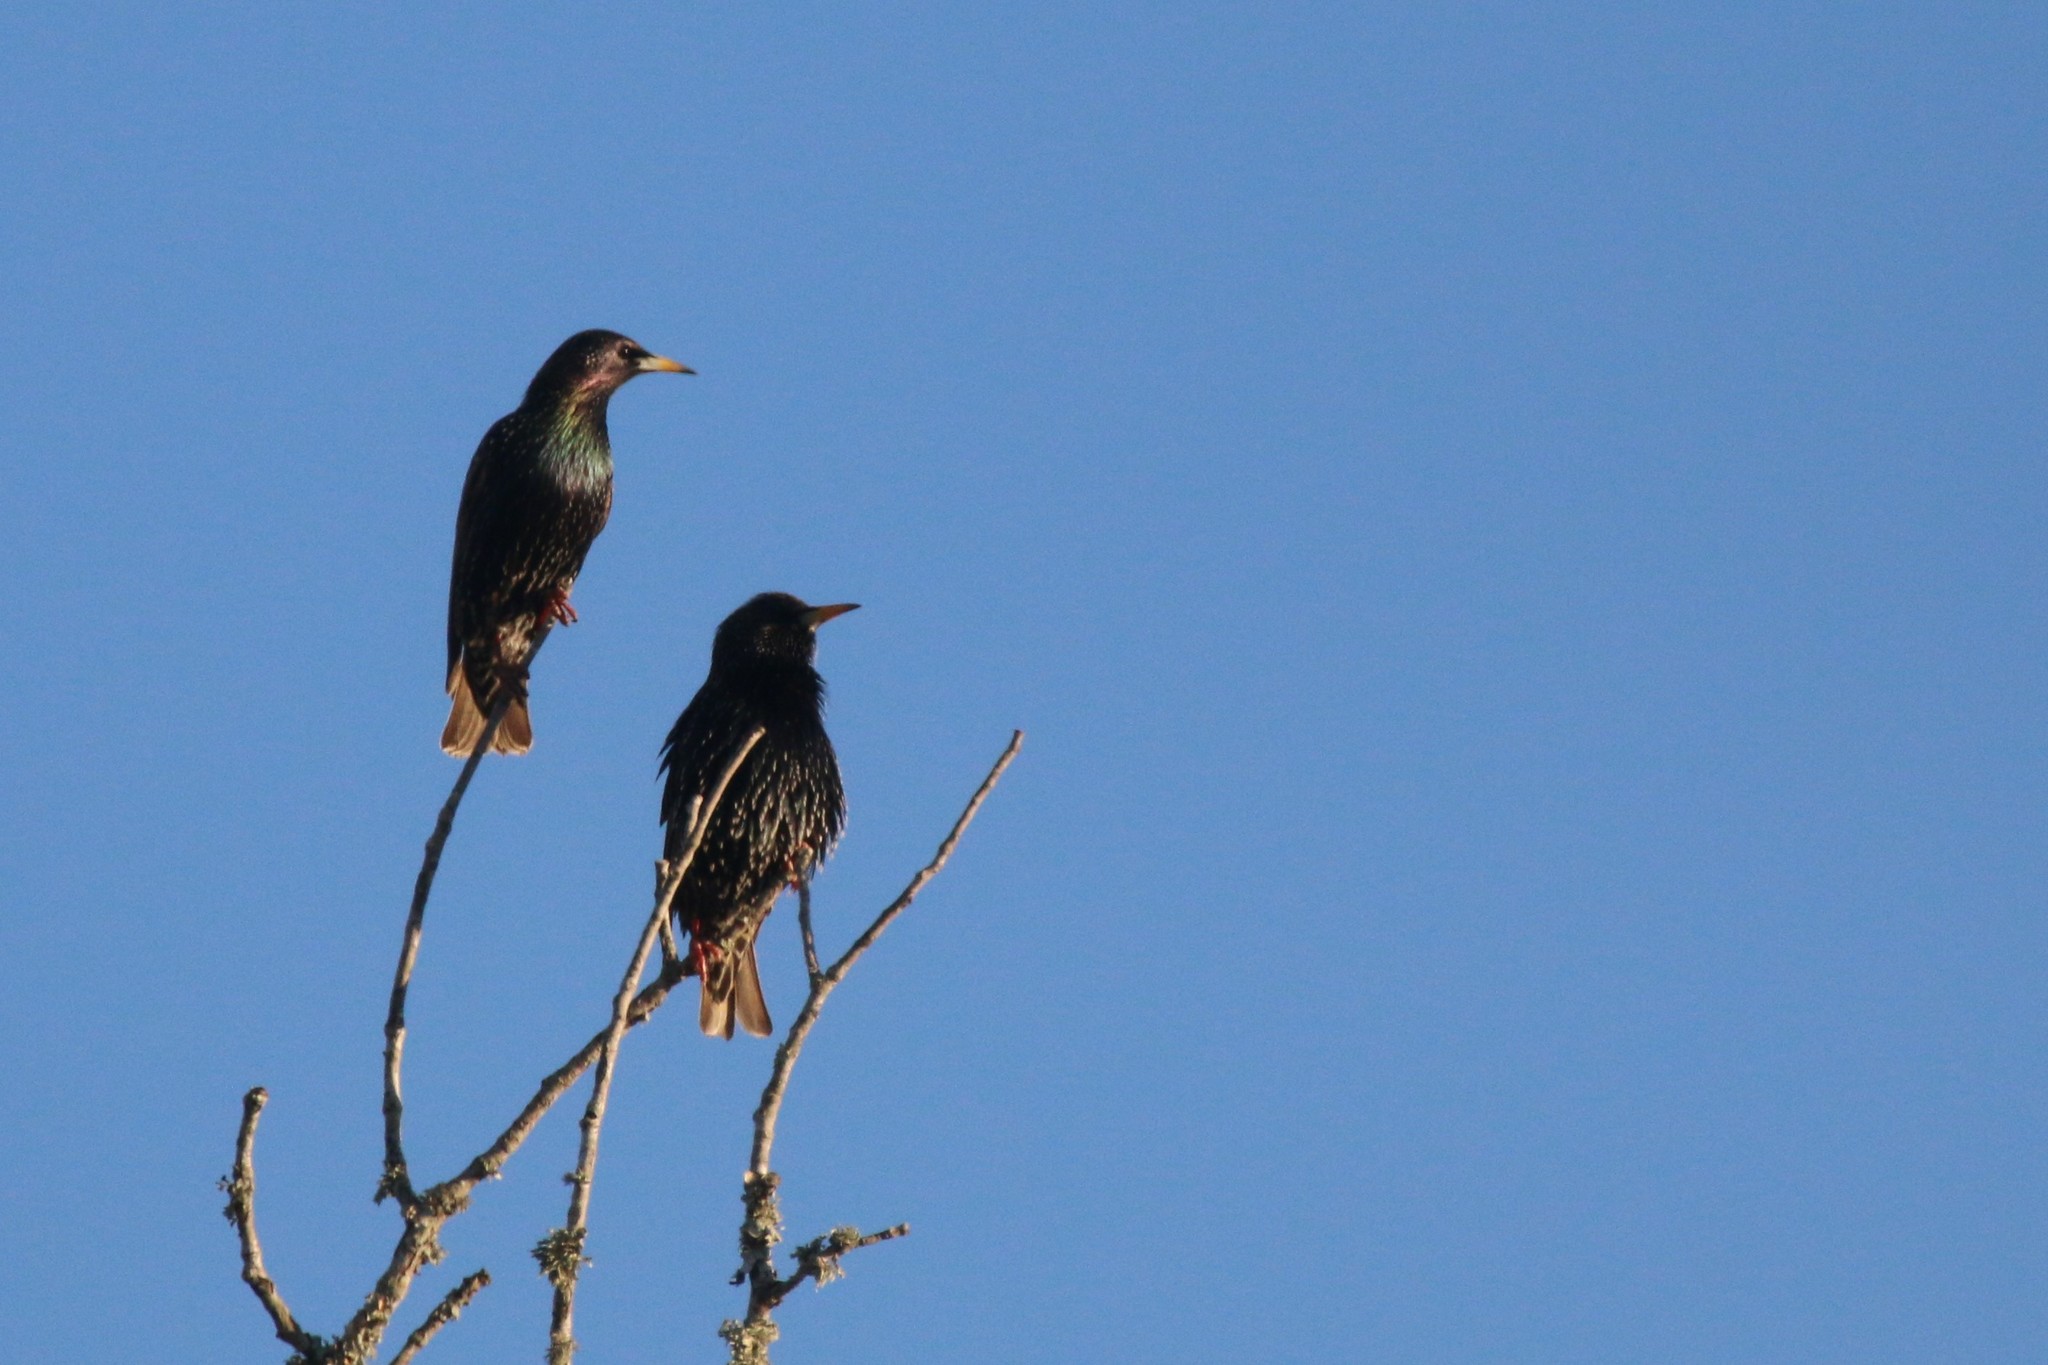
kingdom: Animalia
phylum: Chordata
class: Aves
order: Passeriformes
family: Sturnidae
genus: Sturnus
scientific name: Sturnus vulgaris
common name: Common starling
